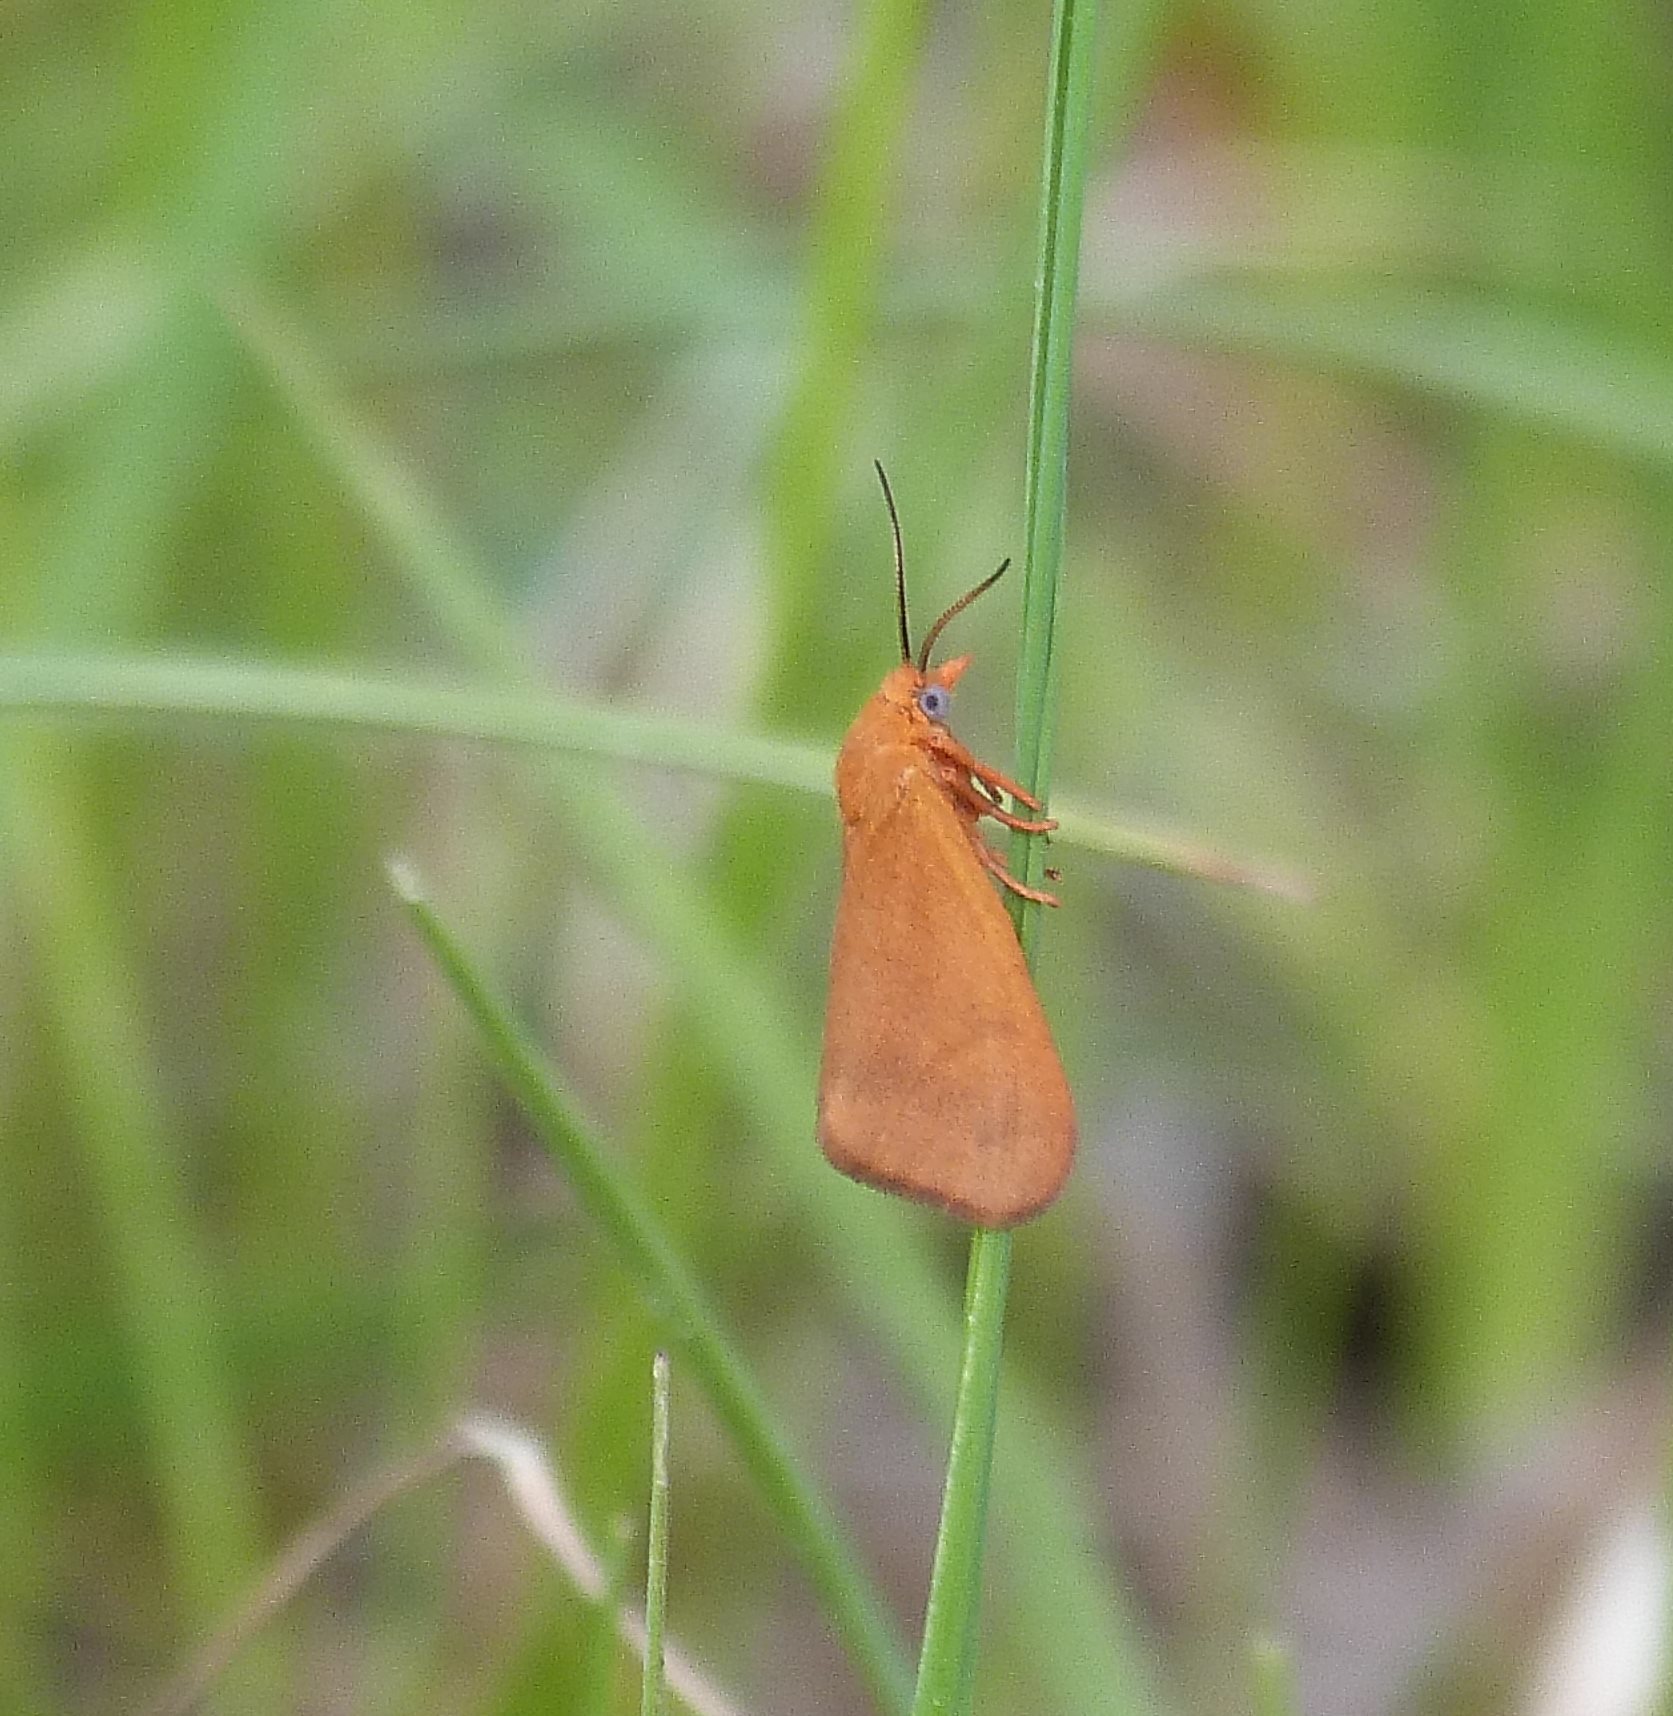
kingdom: Animalia
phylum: Arthropoda
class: Insecta
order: Lepidoptera
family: Erebidae
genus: Virbia
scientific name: Virbia aurantiaca
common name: Orange virbia moth
